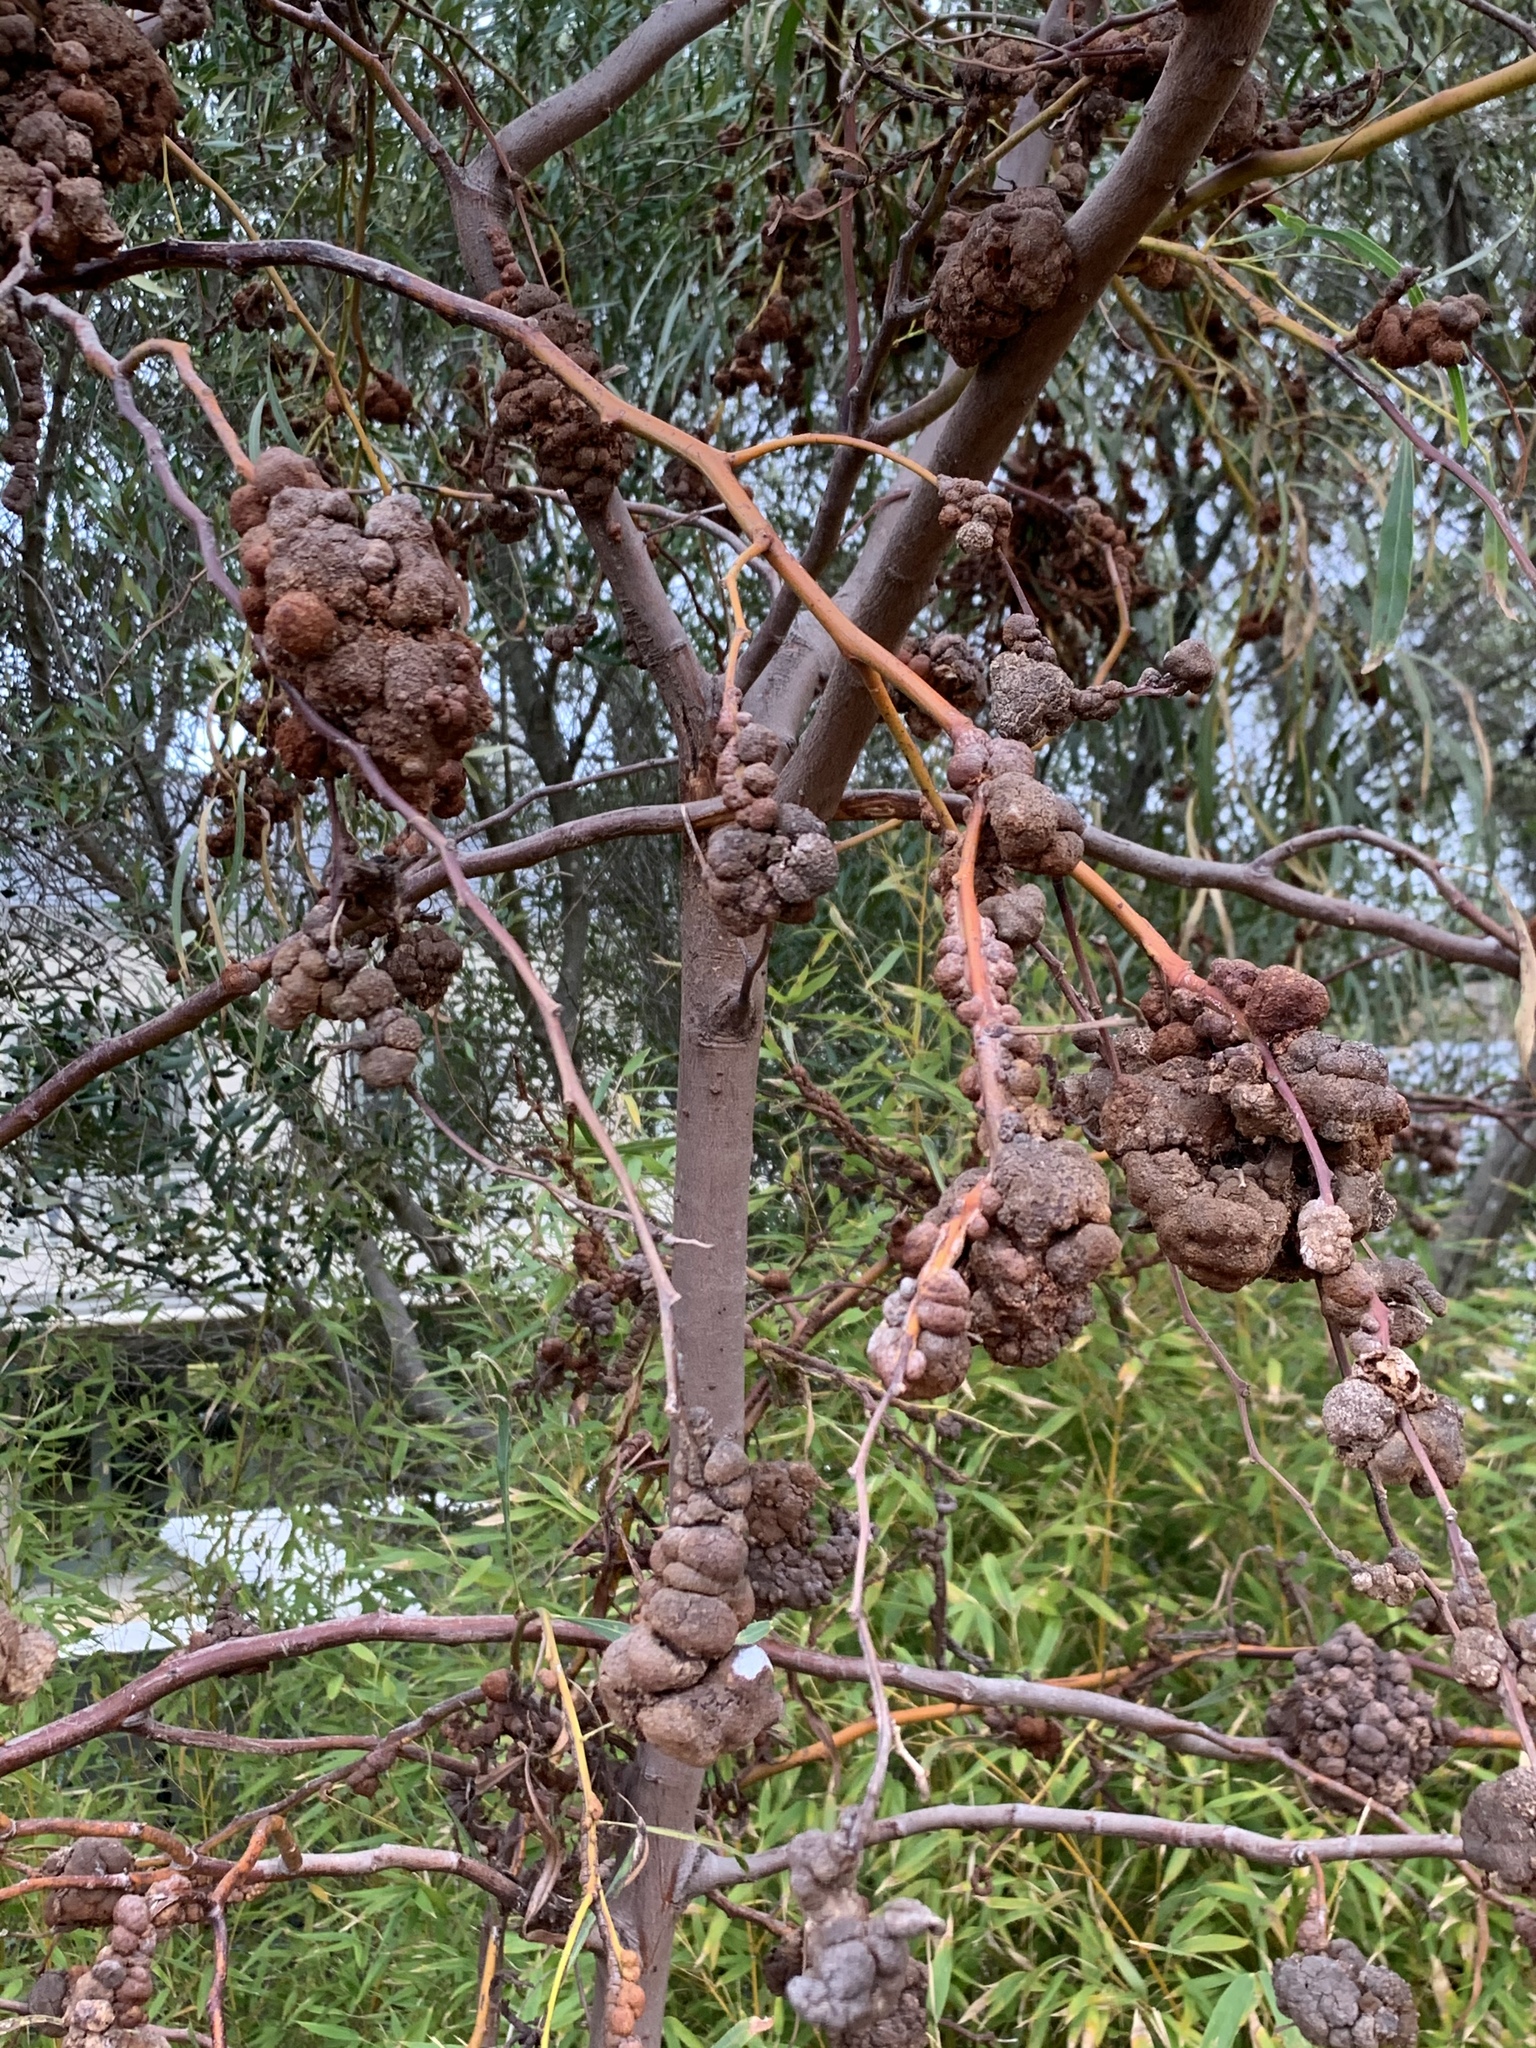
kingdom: Fungi
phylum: Basidiomycota
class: Pucciniomycetes
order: Pucciniales
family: Uromycladiaceae
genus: Uromycladium
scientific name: Uromycladium morrisii
